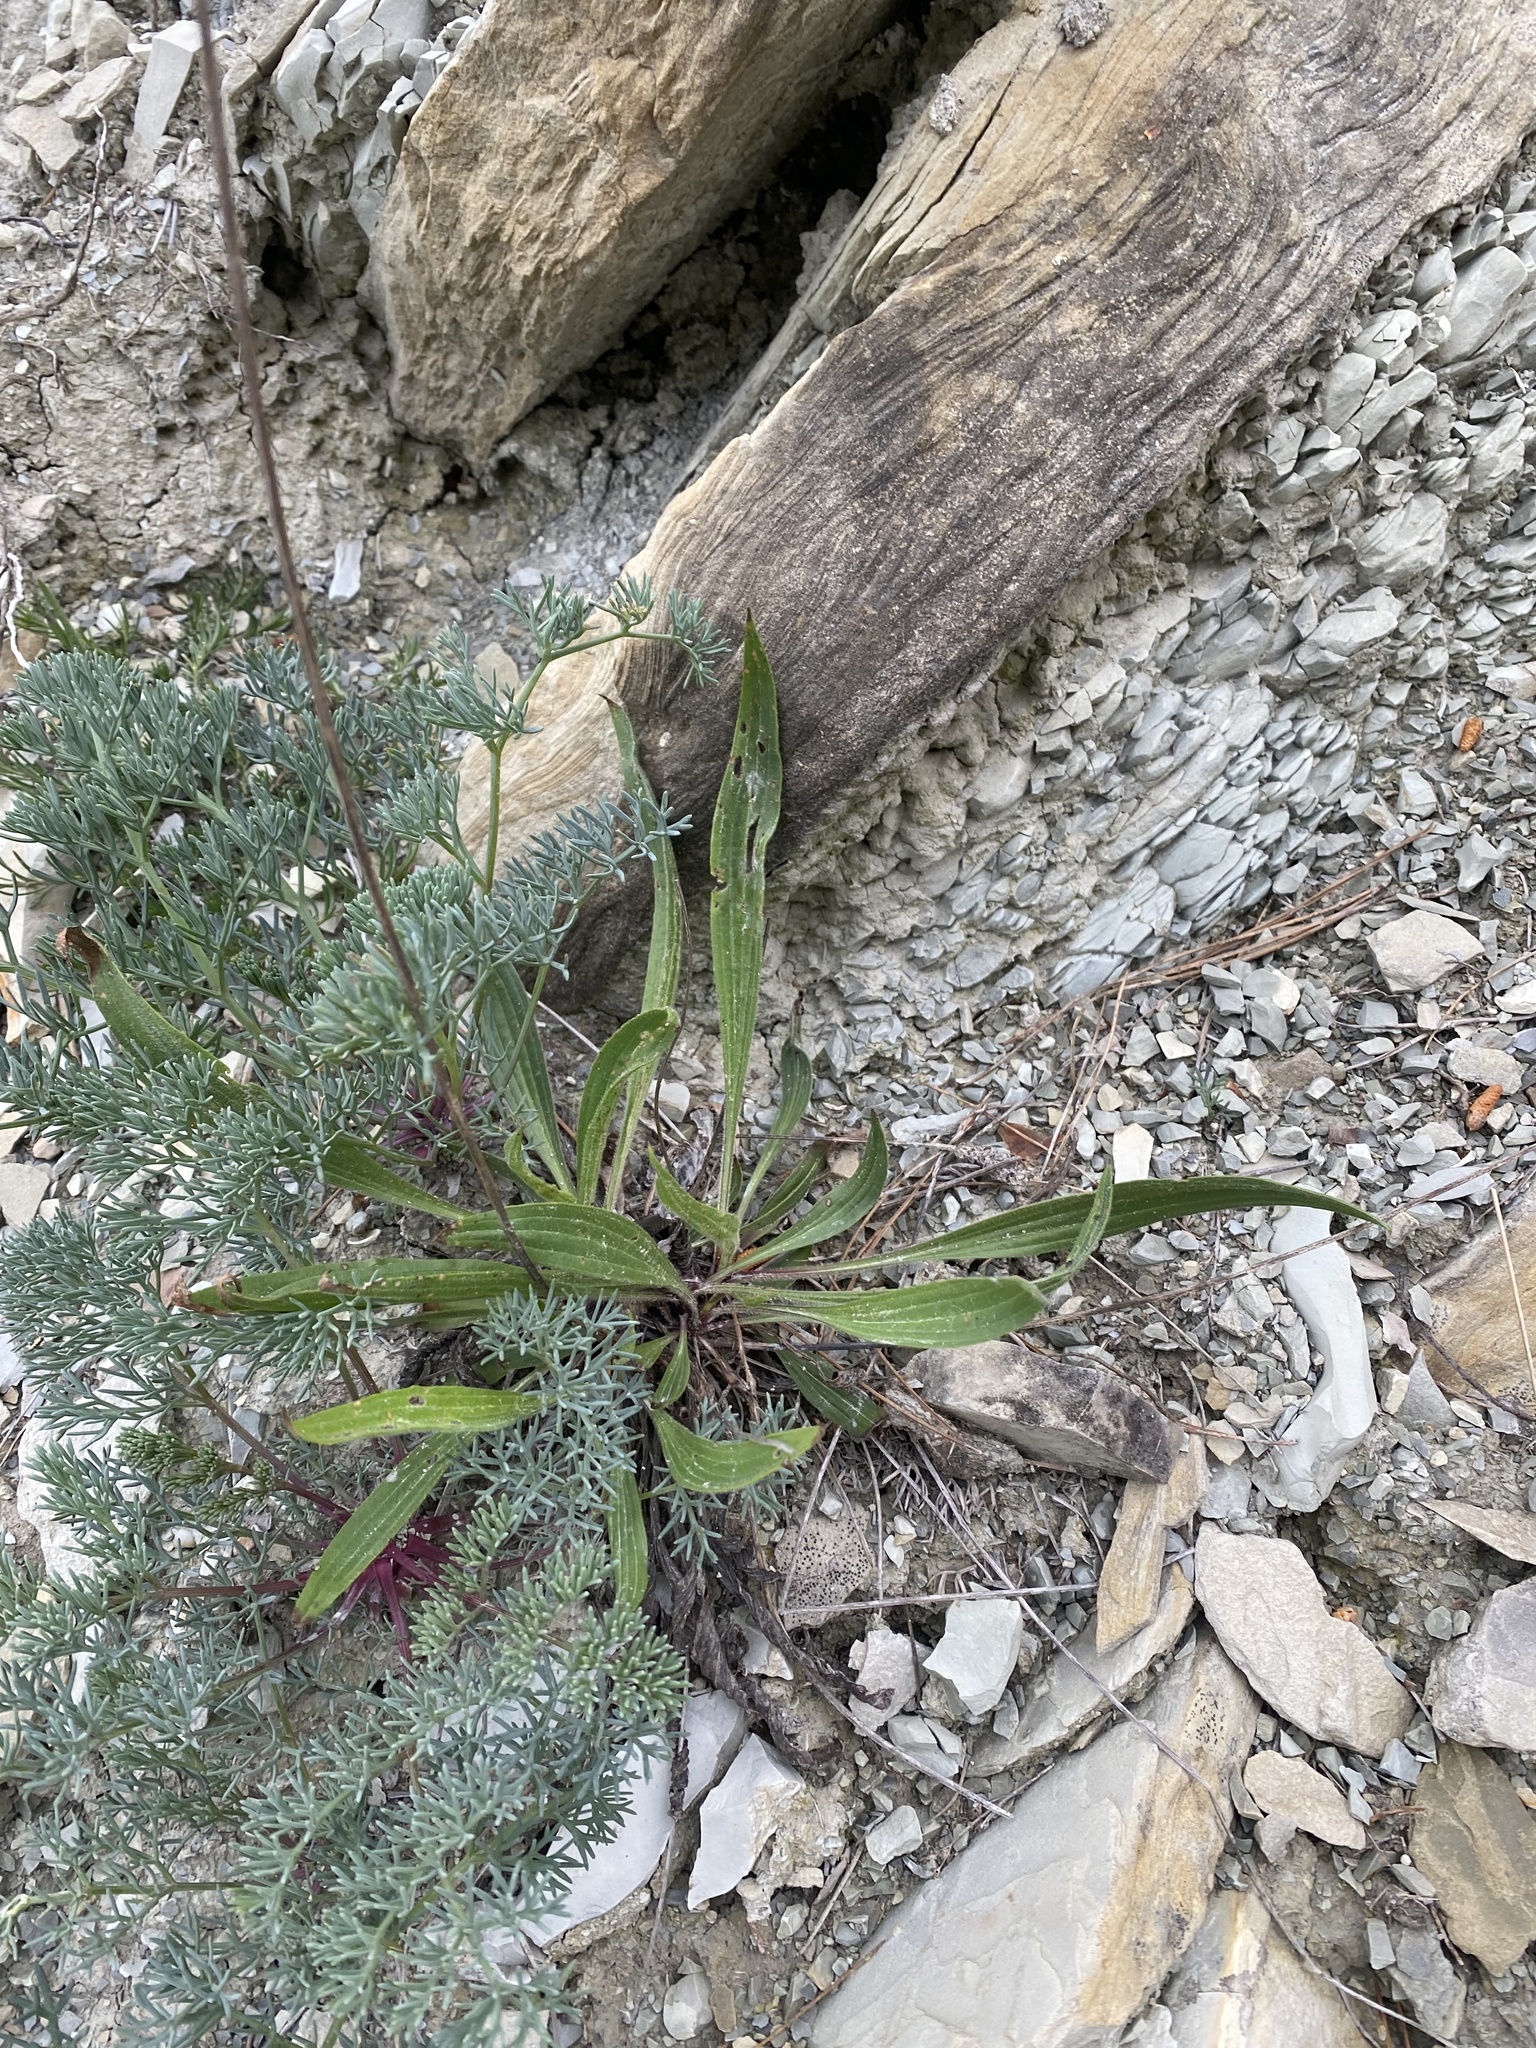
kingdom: Plantae
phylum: Tracheophyta
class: Magnoliopsida
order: Lamiales
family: Plantaginaceae
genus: Plantago
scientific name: Plantago lanceolata
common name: Ribwort plantain
